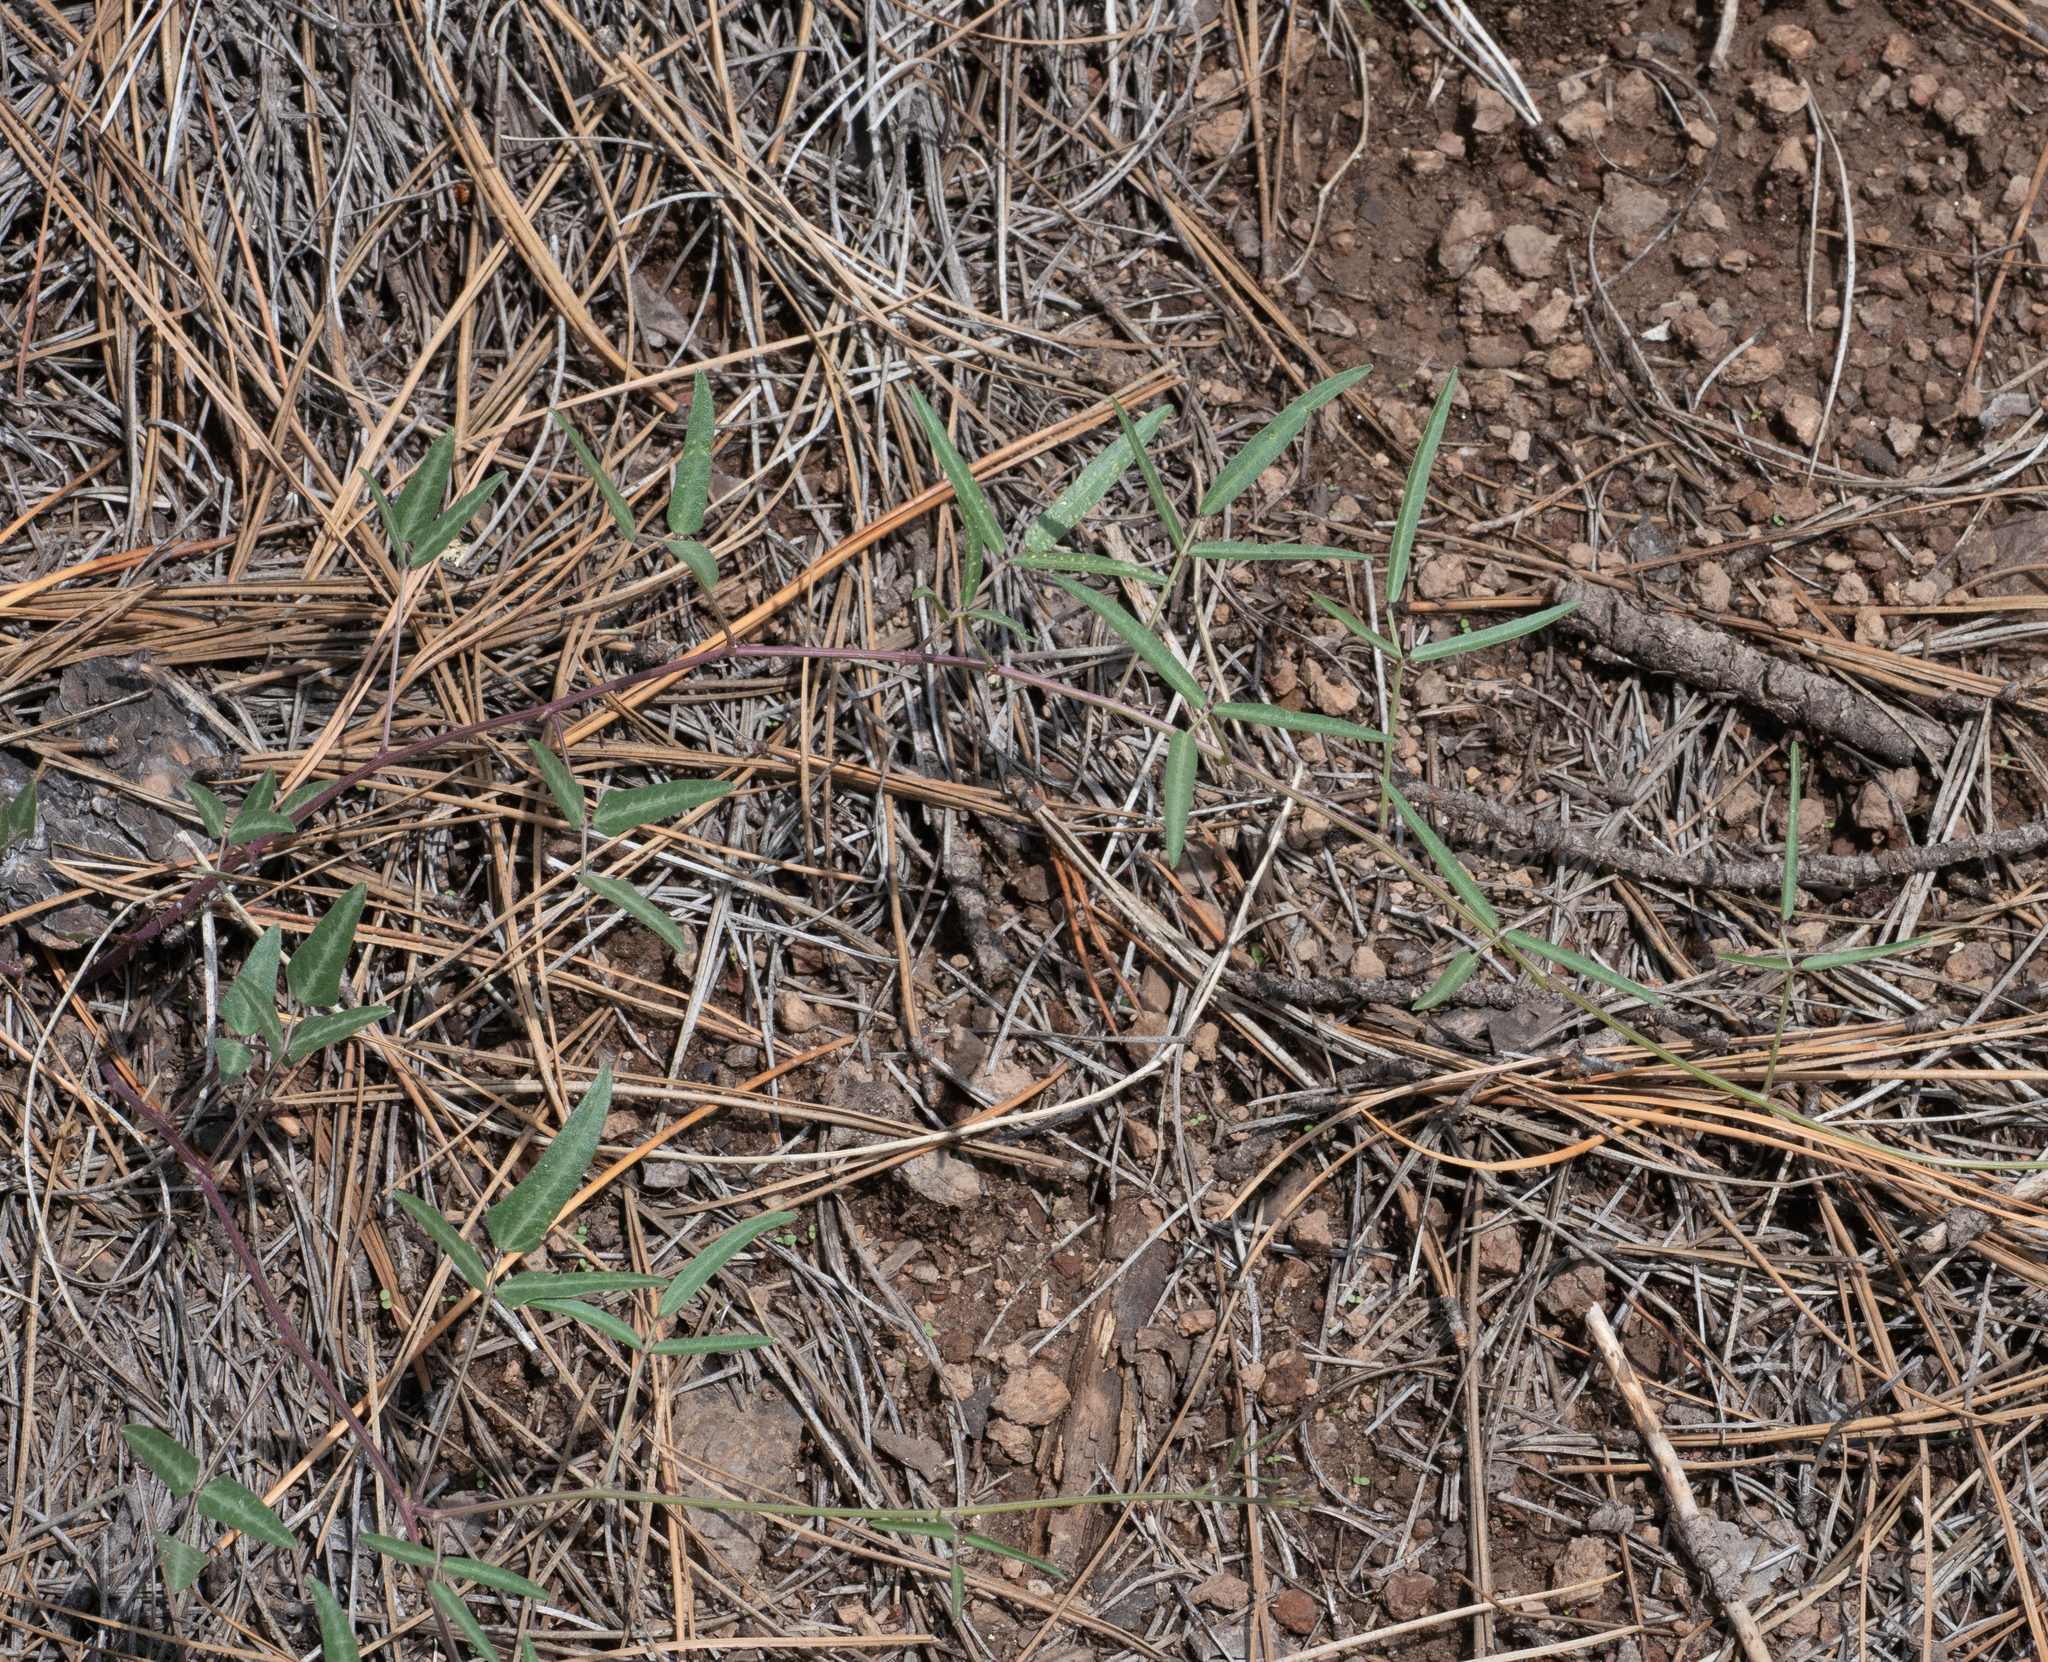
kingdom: Plantae
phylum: Tracheophyta
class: Magnoliopsida
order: Fabales
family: Fabaceae
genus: Phaseolus
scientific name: Phaseolus angustissimus
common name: Slimleaf bean
